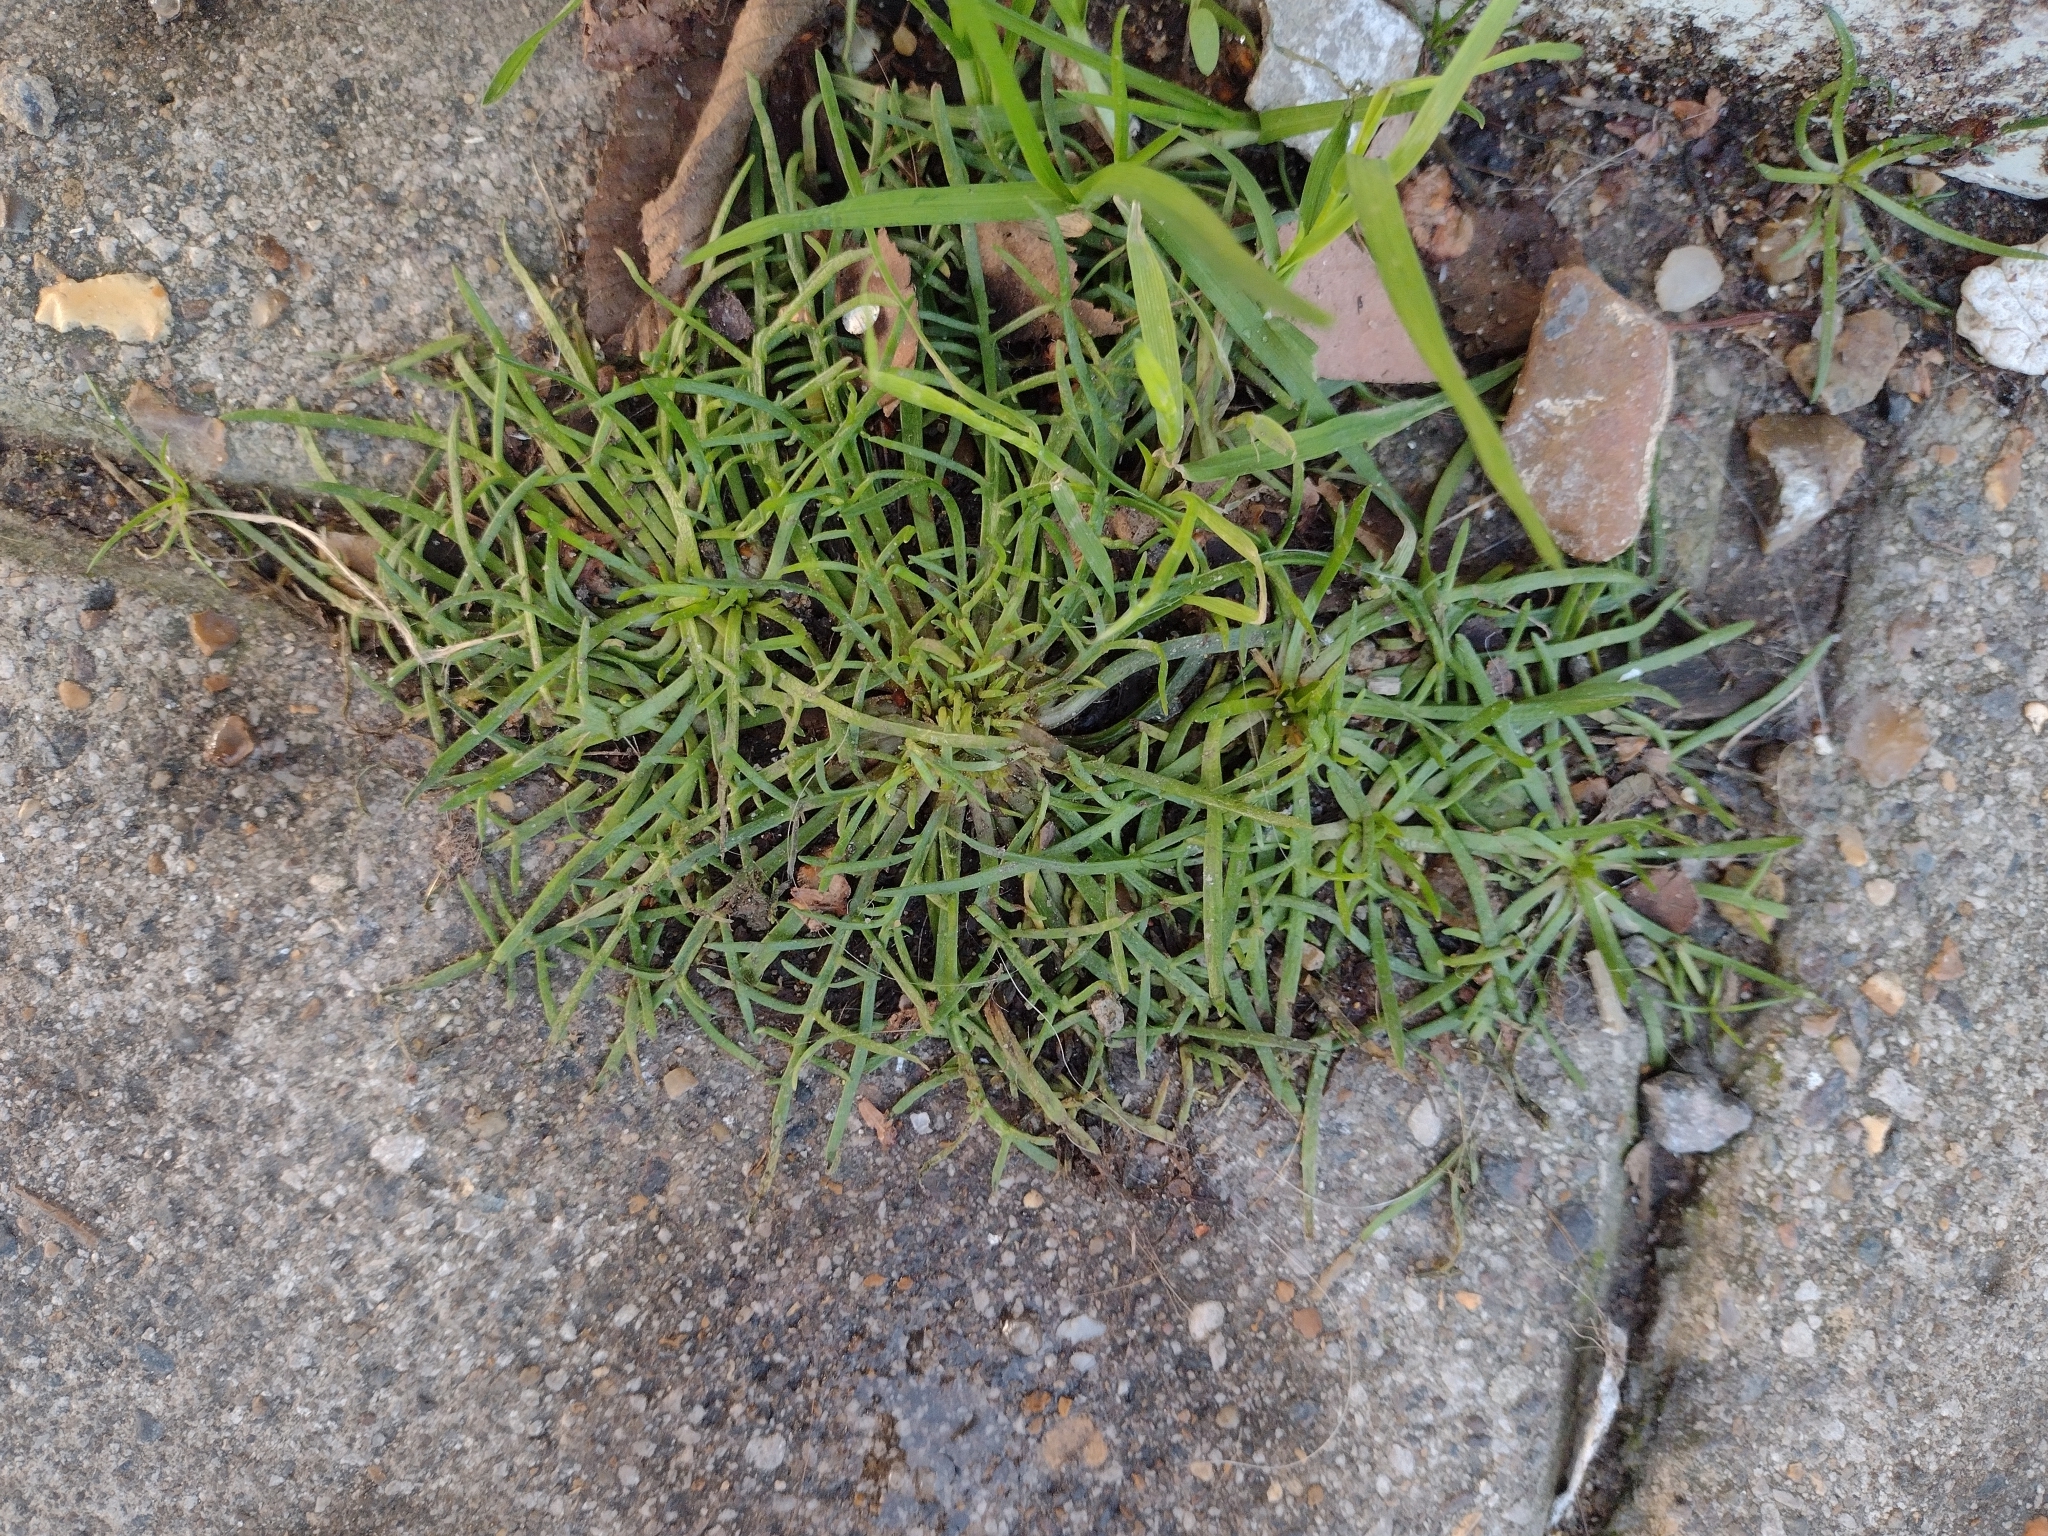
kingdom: Plantae
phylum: Tracheophyta
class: Magnoliopsida
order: Lamiales
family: Plantaginaceae
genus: Plantago
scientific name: Plantago coronopus
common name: Buck's-horn plantain
